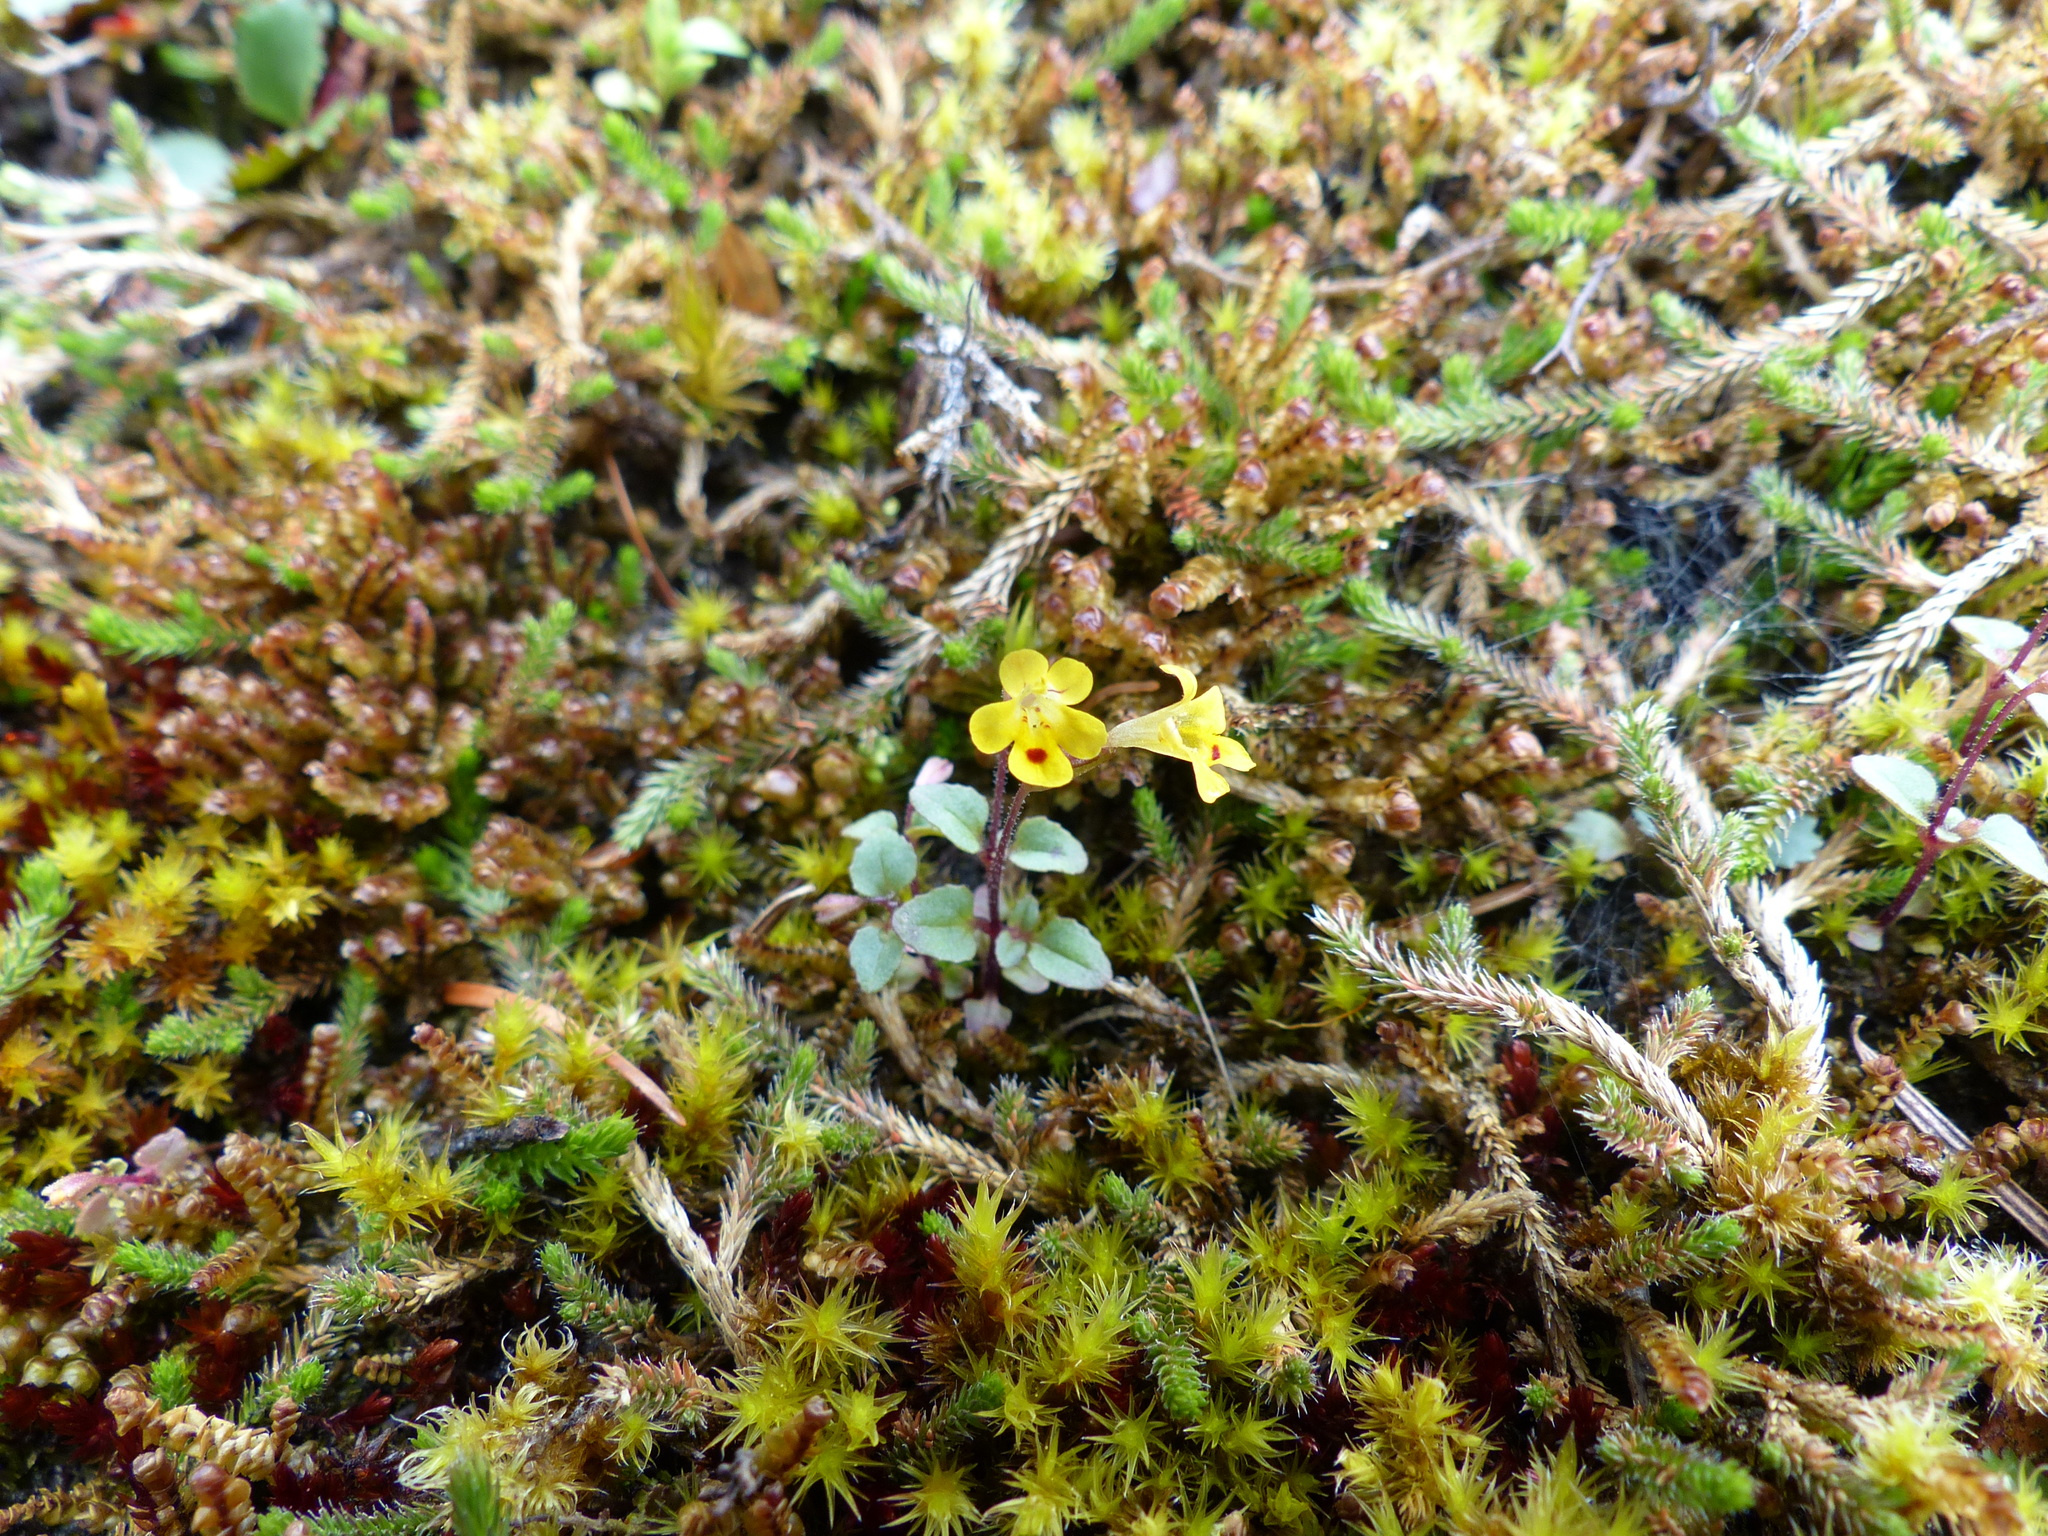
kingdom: Plantae
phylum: Tracheophyta
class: Magnoliopsida
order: Lamiales
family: Phrymaceae
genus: Erythranthe
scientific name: Erythranthe alsinoides
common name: Chickweed monkeyflower
